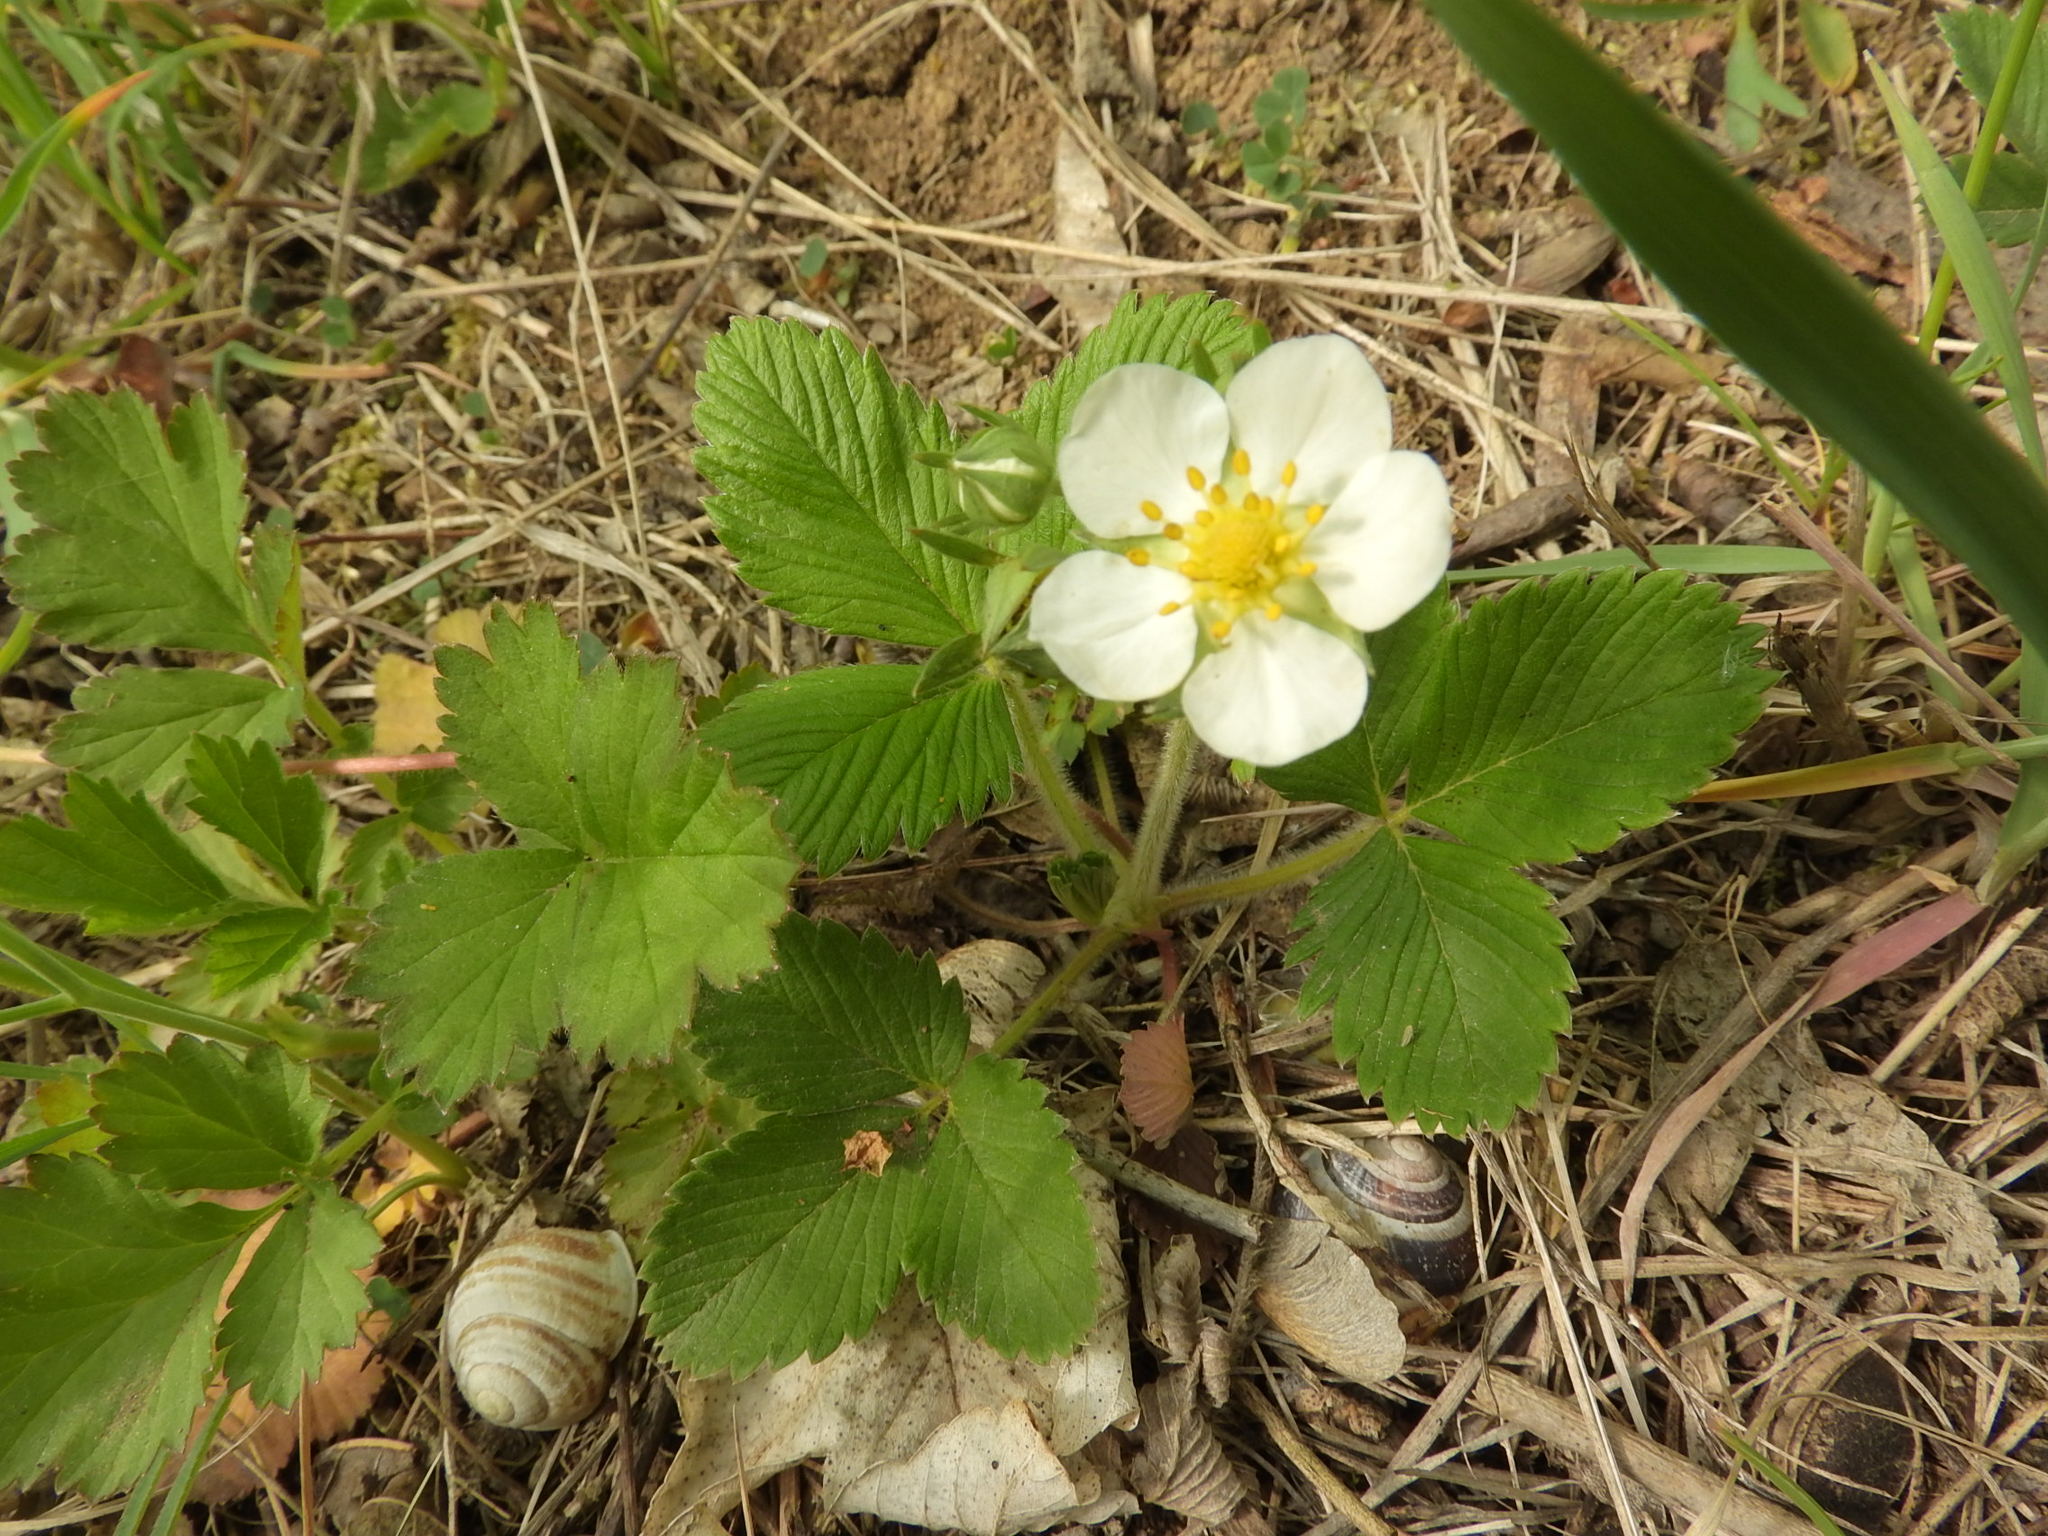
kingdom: Plantae
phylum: Tracheophyta
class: Magnoliopsida
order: Rosales
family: Rosaceae
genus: Fragaria
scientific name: Fragaria vesca
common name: Wild strawberry
